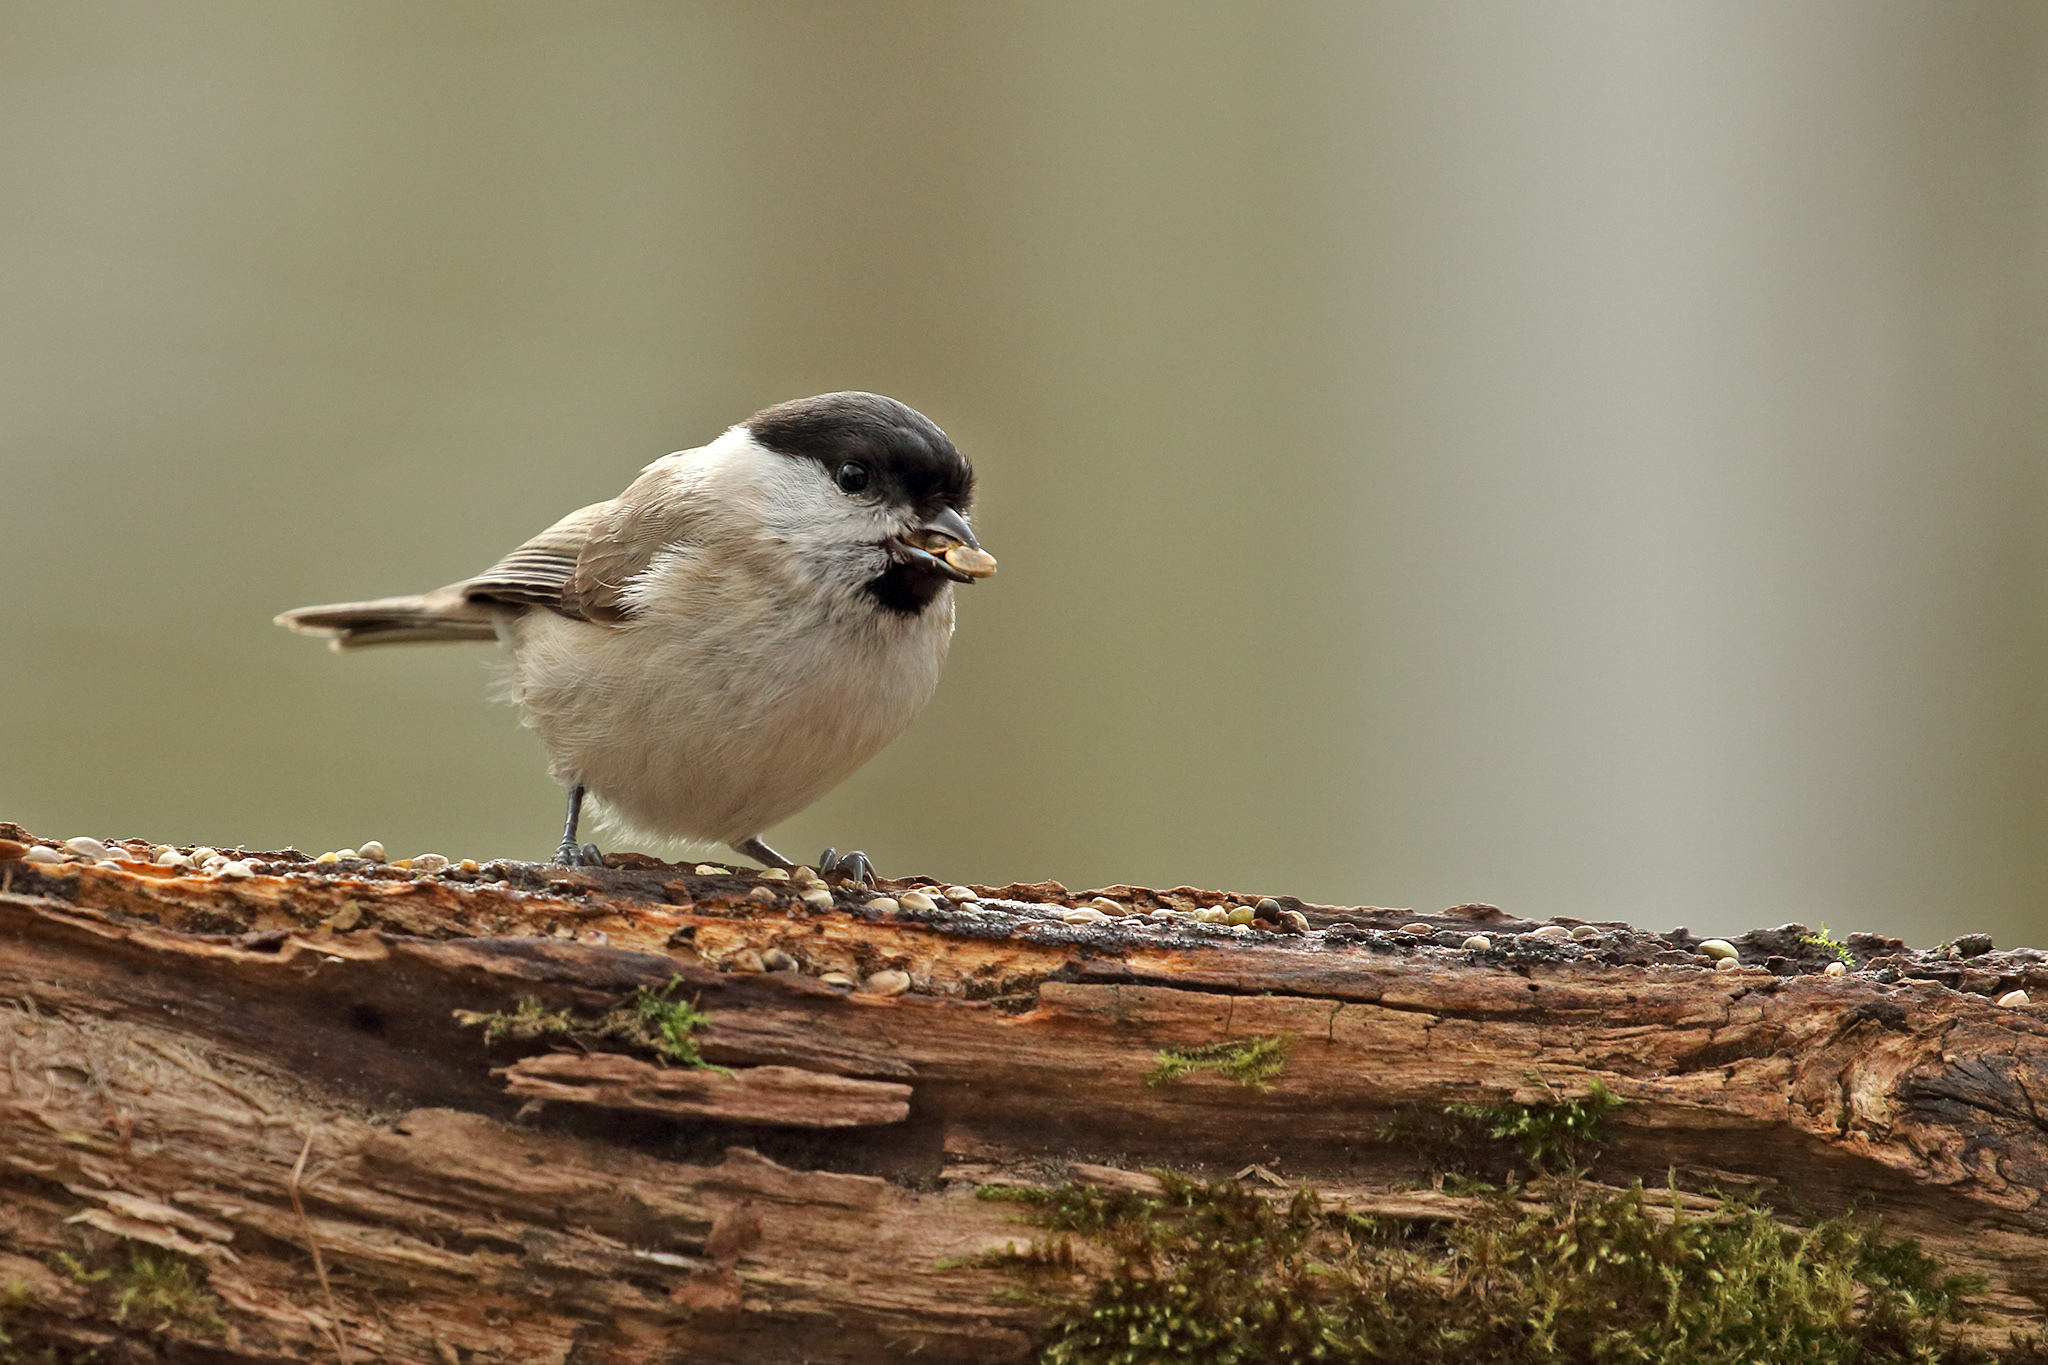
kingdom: Animalia
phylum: Chordata
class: Aves
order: Passeriformes
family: Paridae
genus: Poecile
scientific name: Poecile palustris
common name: Marsh tit
